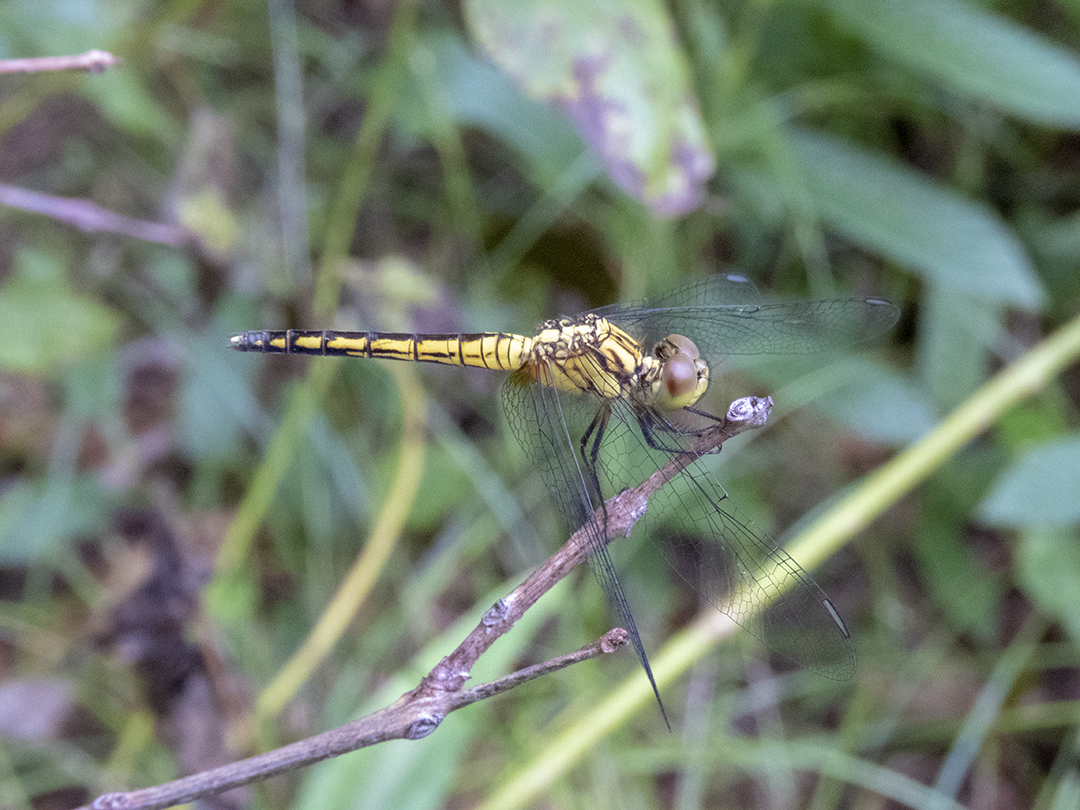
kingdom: Animalia
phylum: Arthropoda
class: Insecta
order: Odonata
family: Libellulidae
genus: Indothemis
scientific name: Indothemis carnatica
